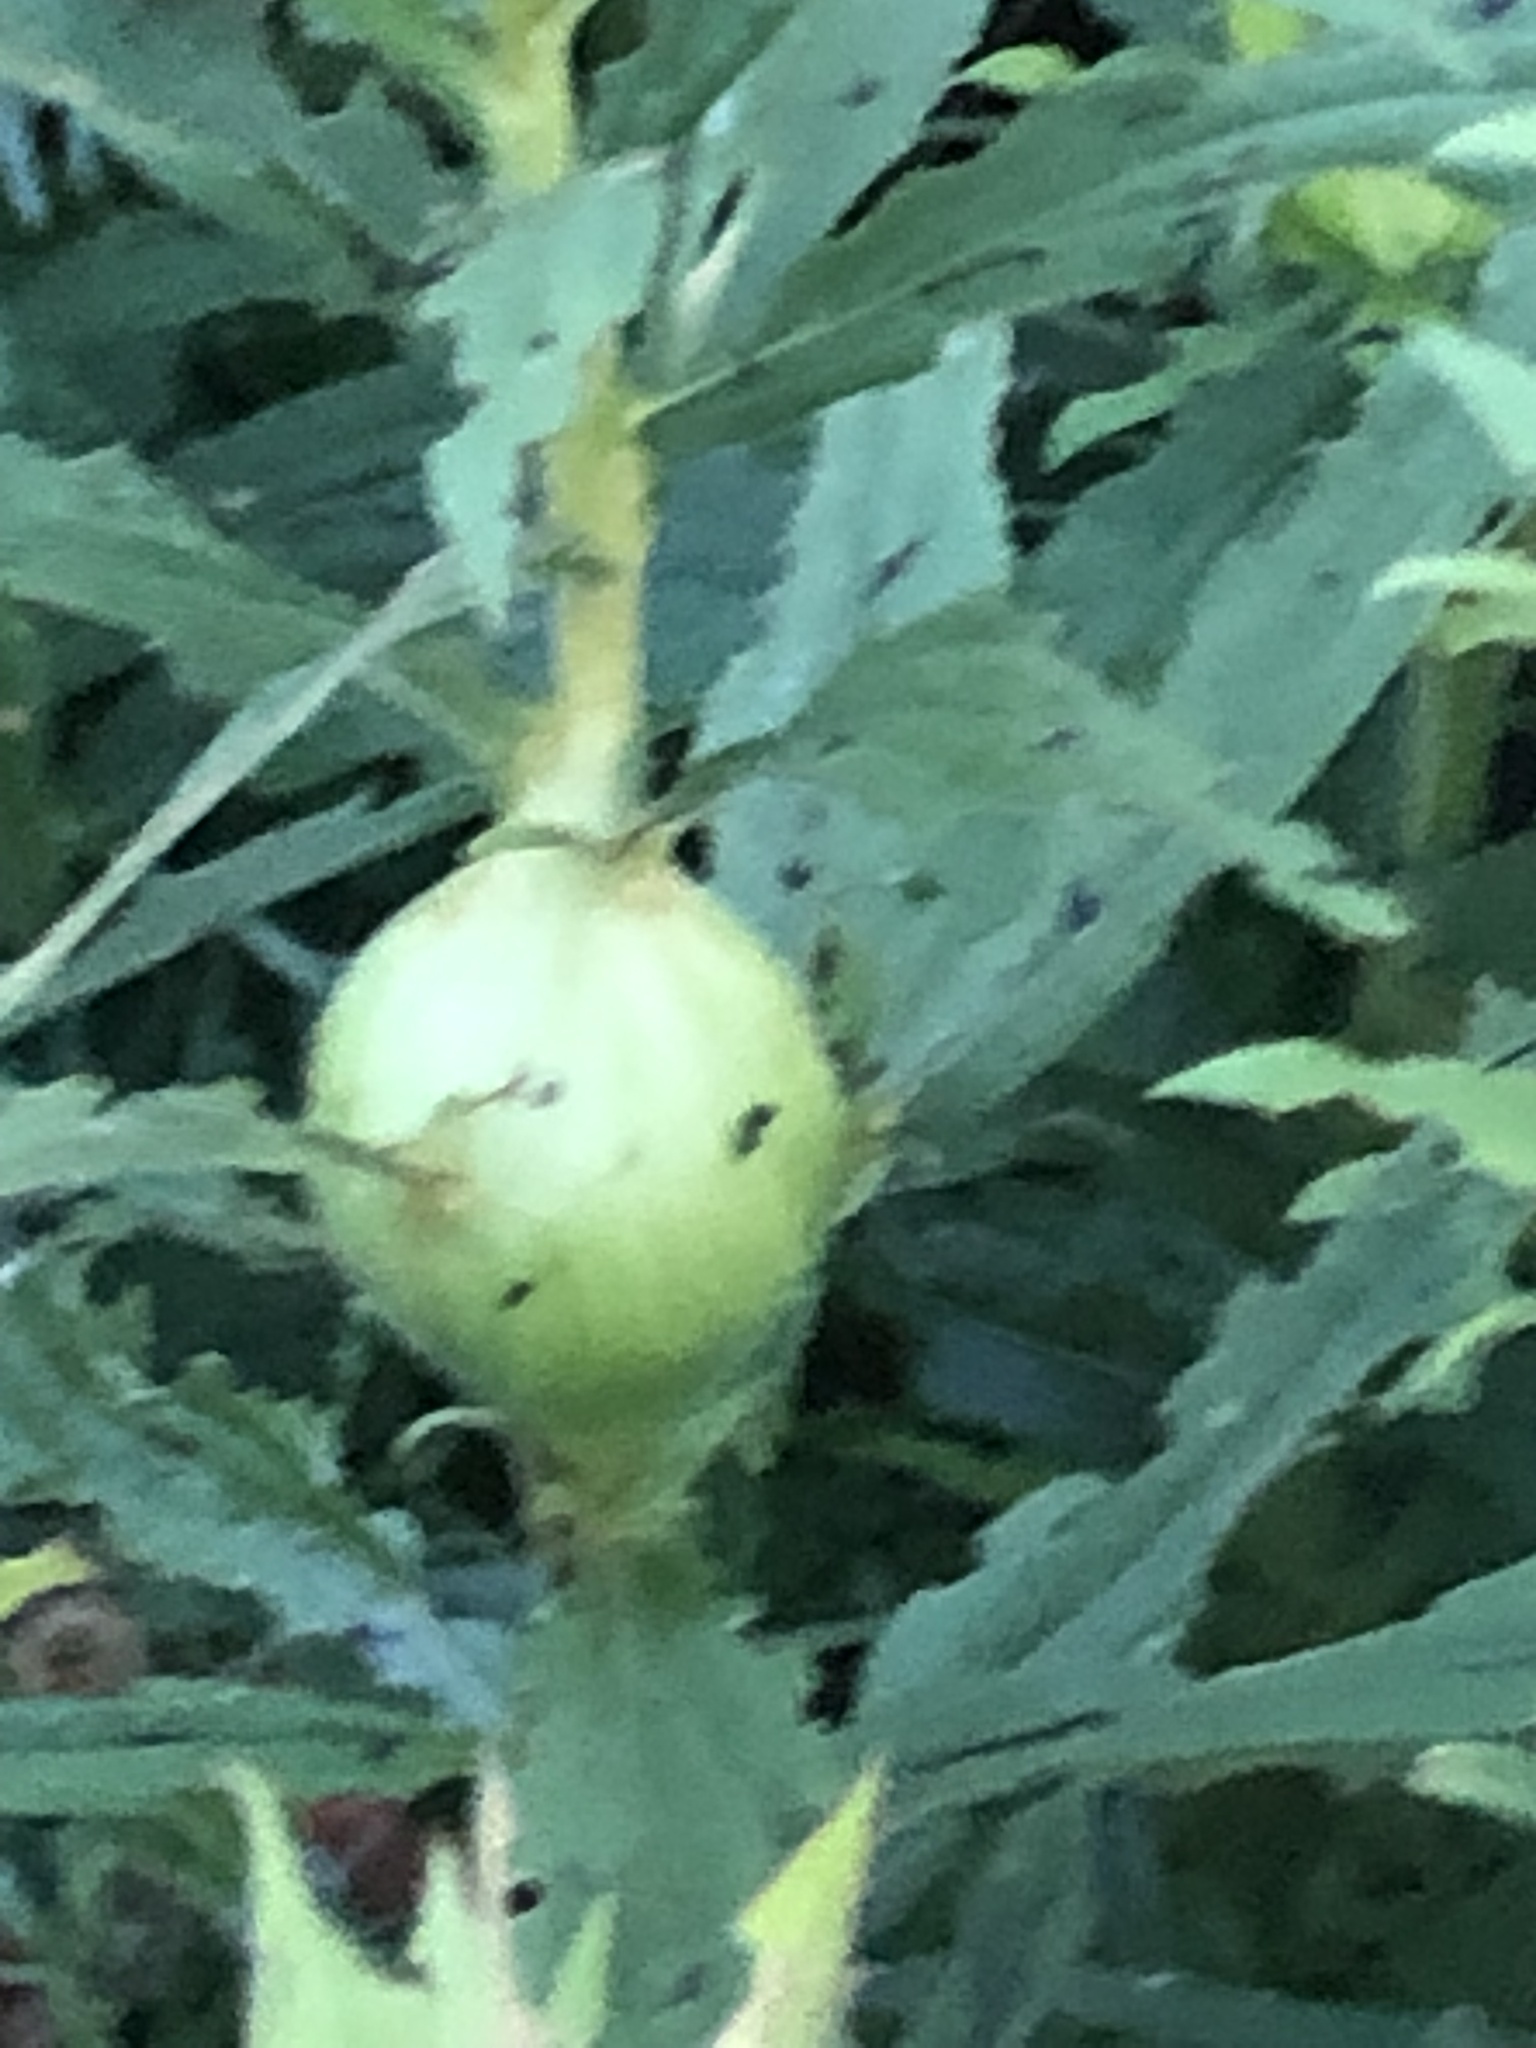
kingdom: Animalia
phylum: Arthropoda
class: Insecta
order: Diptera
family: Tephritidae
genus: Eurosta
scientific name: Eurosta solidaginis
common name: Goldenrod gall fly
